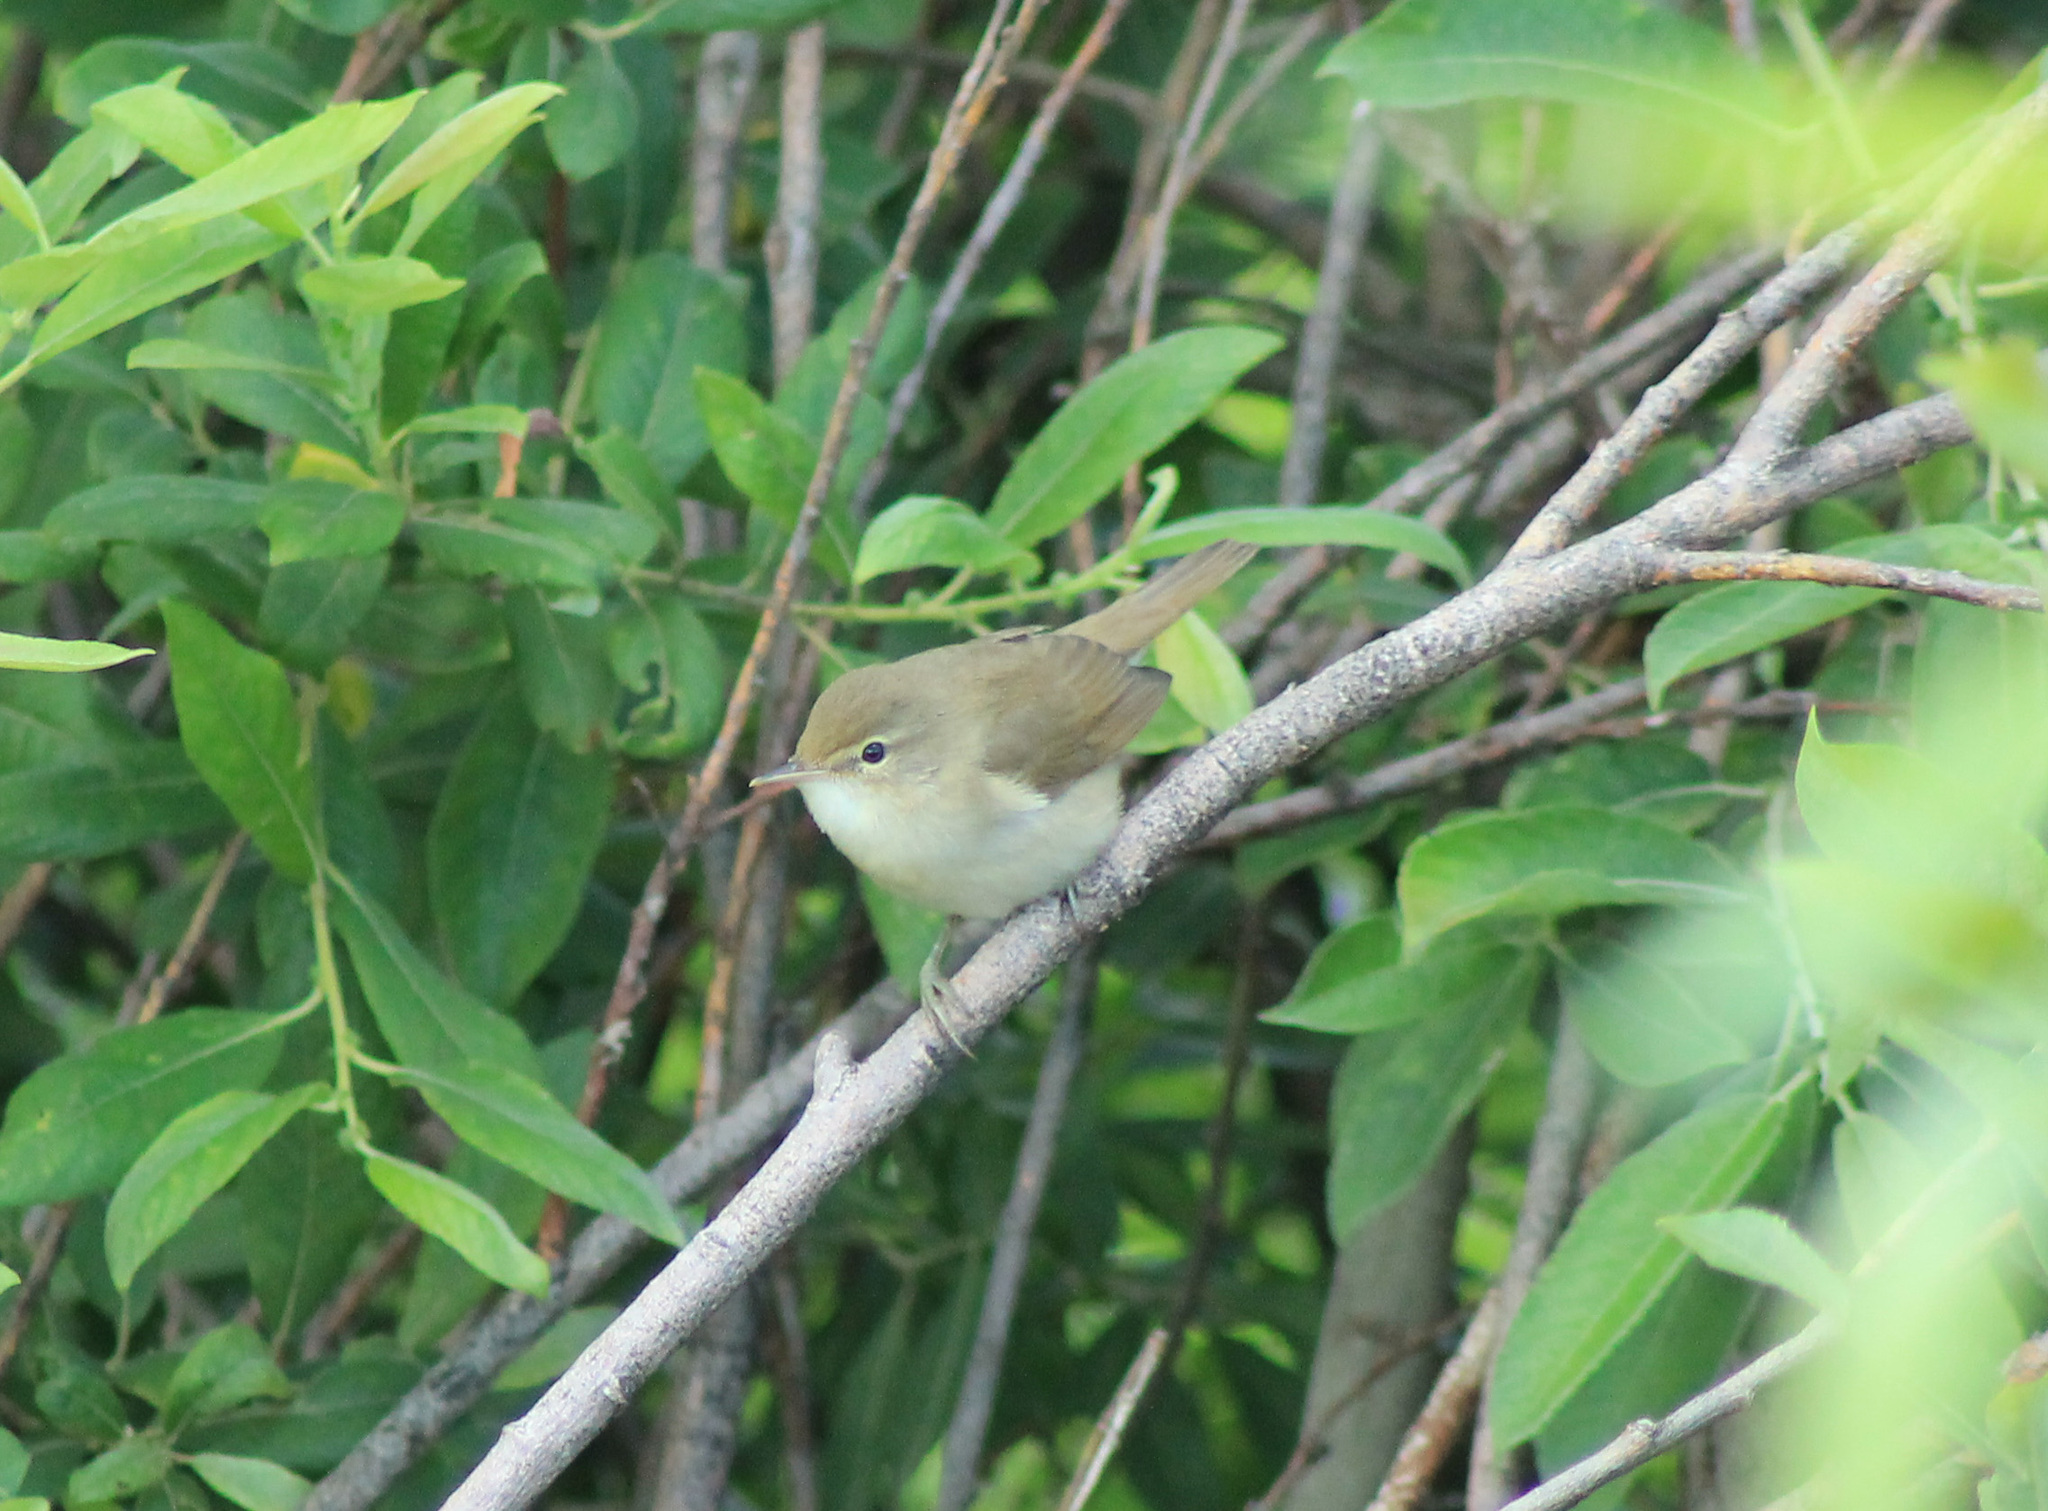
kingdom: Animalia
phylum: Chordata
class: Aves
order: Passeriformes
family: Acrocephalidae
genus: Acrocephalus
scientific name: Acrocephalus palustris
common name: Marsh warbler
